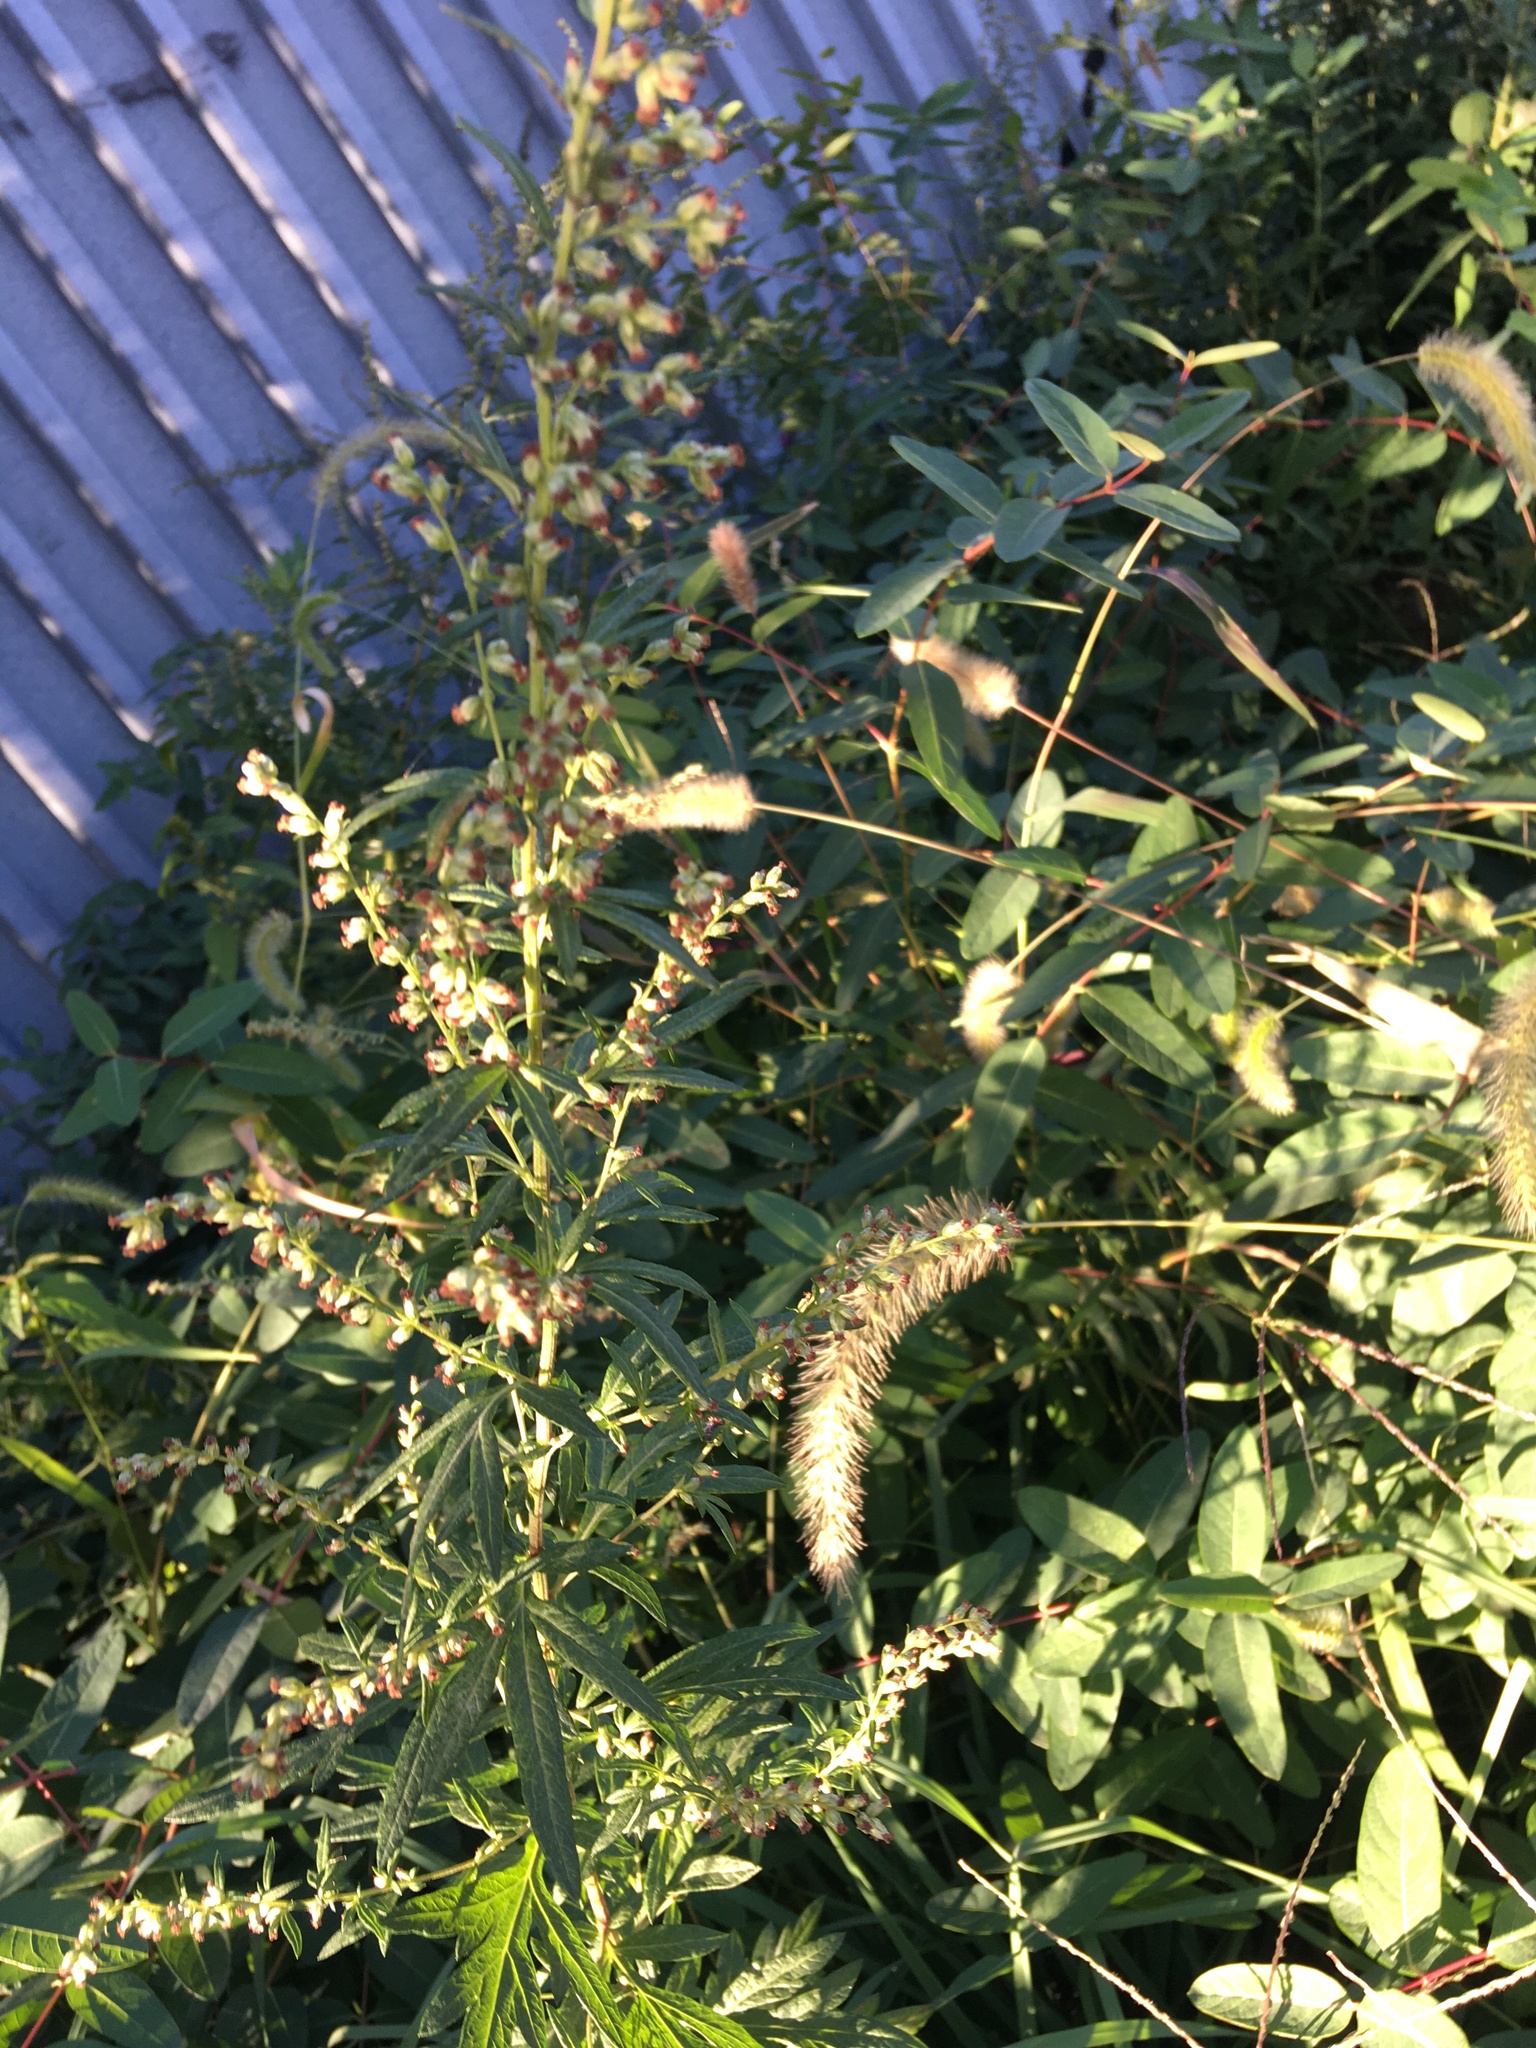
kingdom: Plantae
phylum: Tracheophyta
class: Magnoliopsida
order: Asterales
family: Asteraceae
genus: Artemisia
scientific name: Artemisia vulgaris
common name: Mugwort
